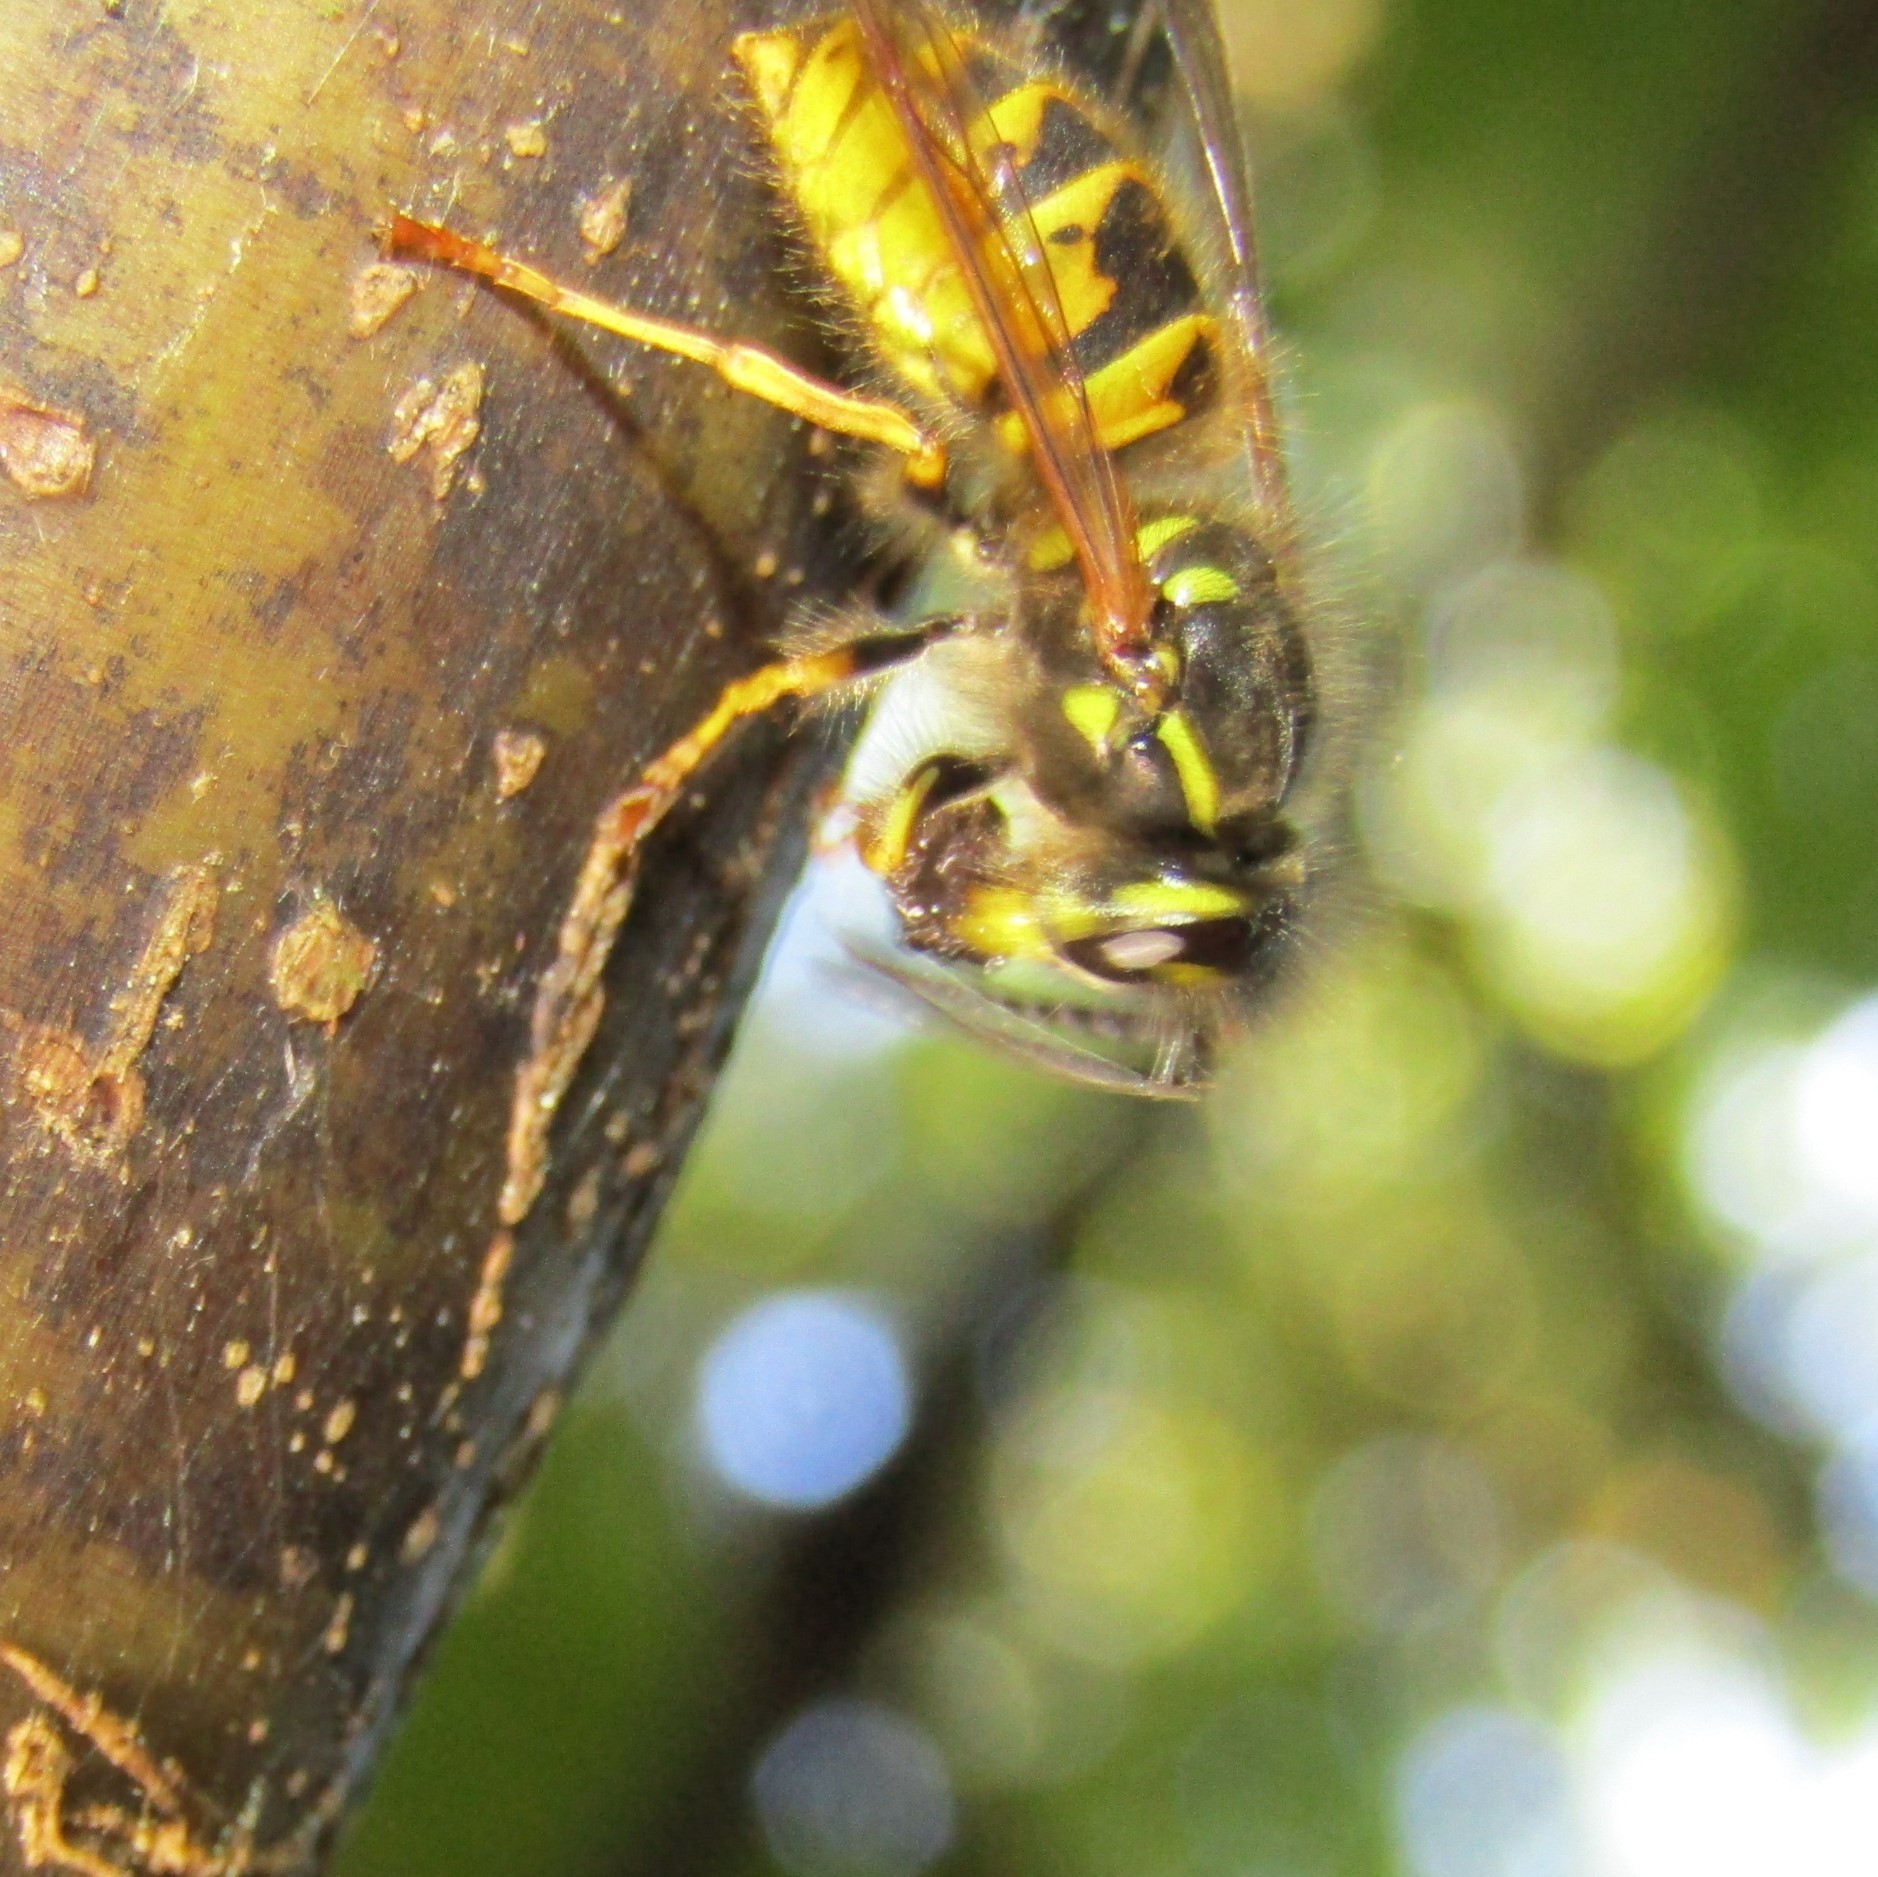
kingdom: Animalia
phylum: Arthropoda
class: Insecta
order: Hymenoptera
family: Vespidae
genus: Vespula
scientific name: Vespula vulgaris
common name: Common wasp
